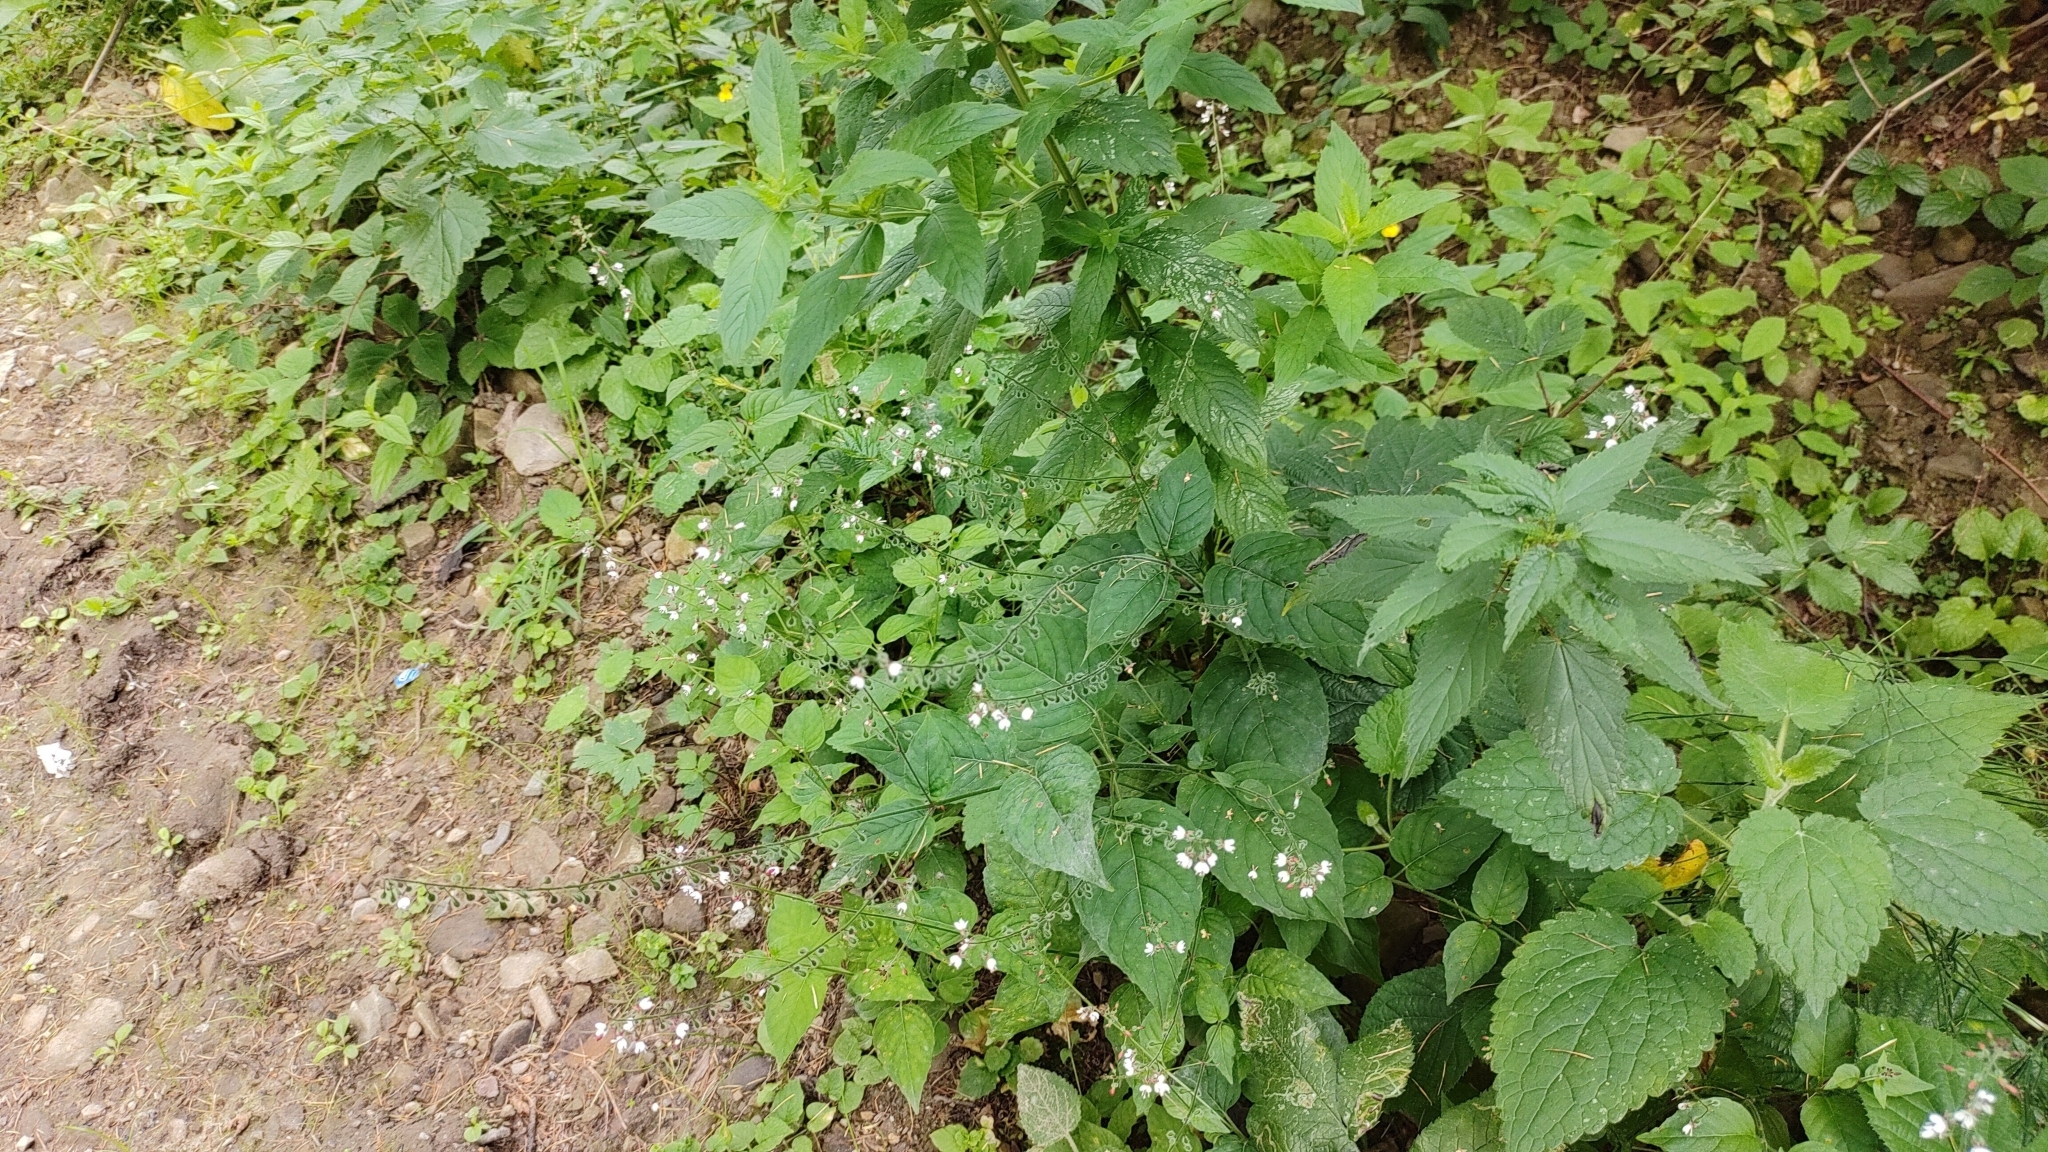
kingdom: Plantae
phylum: Tracheophyta
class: Magnoliopsida
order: Myrtales
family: Onagraceae
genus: Circaea
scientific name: Circaea lutetiana
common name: Enchanter's-nightshade
